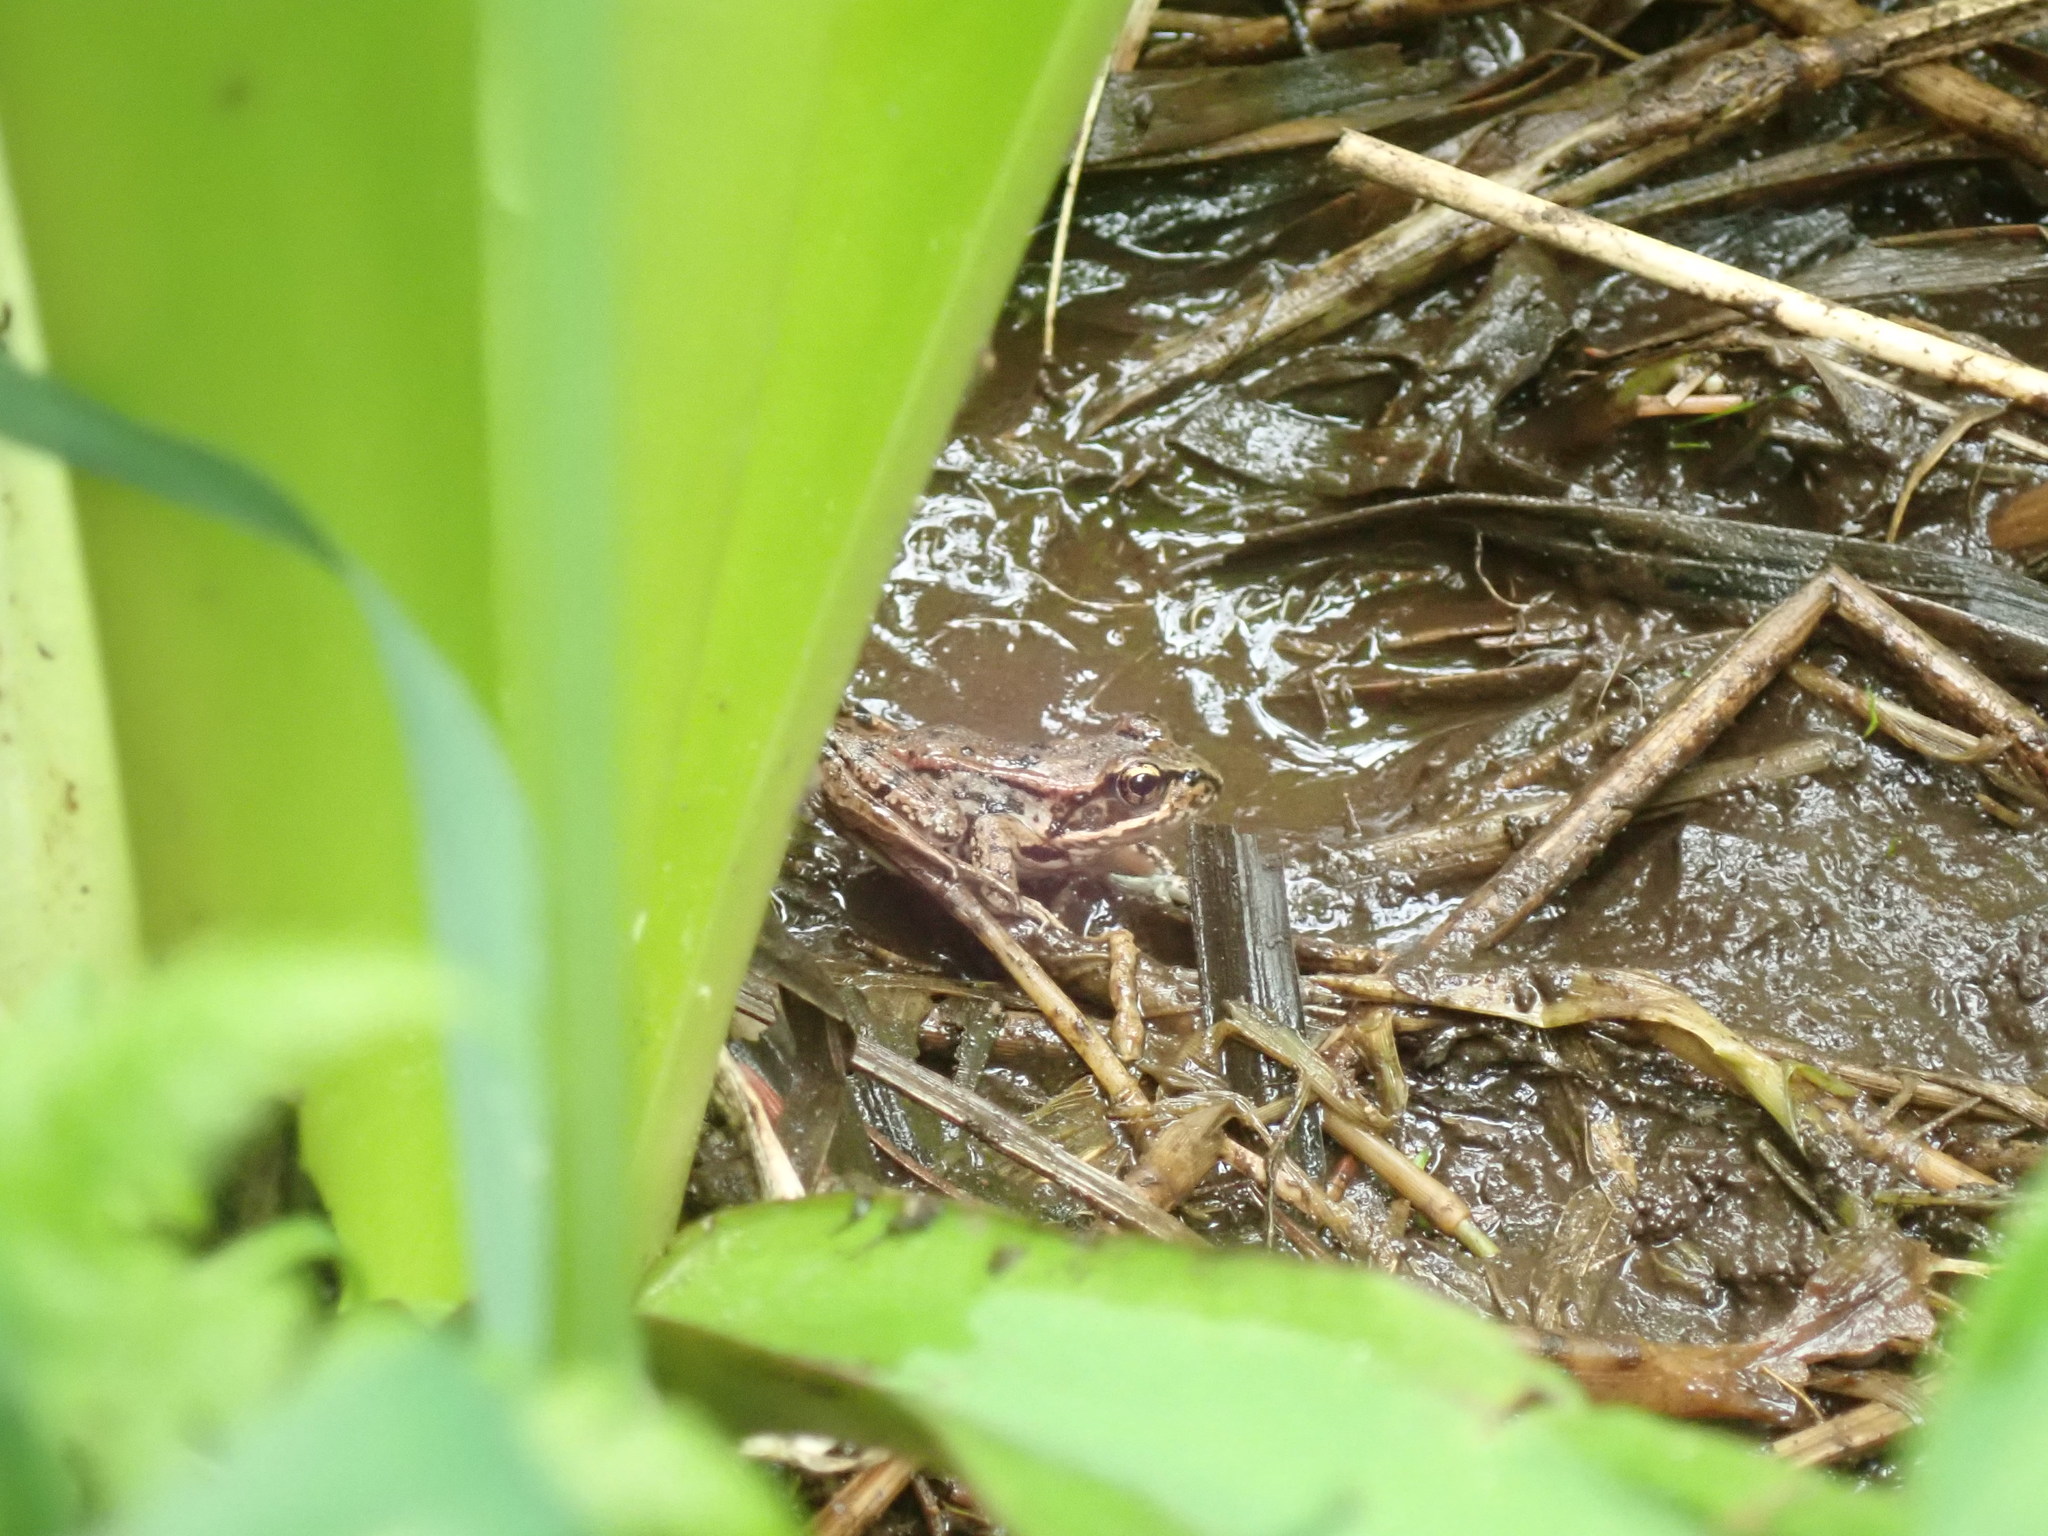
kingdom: Animalia
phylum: Chordata
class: Amphibia
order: Anura
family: Ranidae
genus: Rana
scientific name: Rana aurora
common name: Red-legged frog
